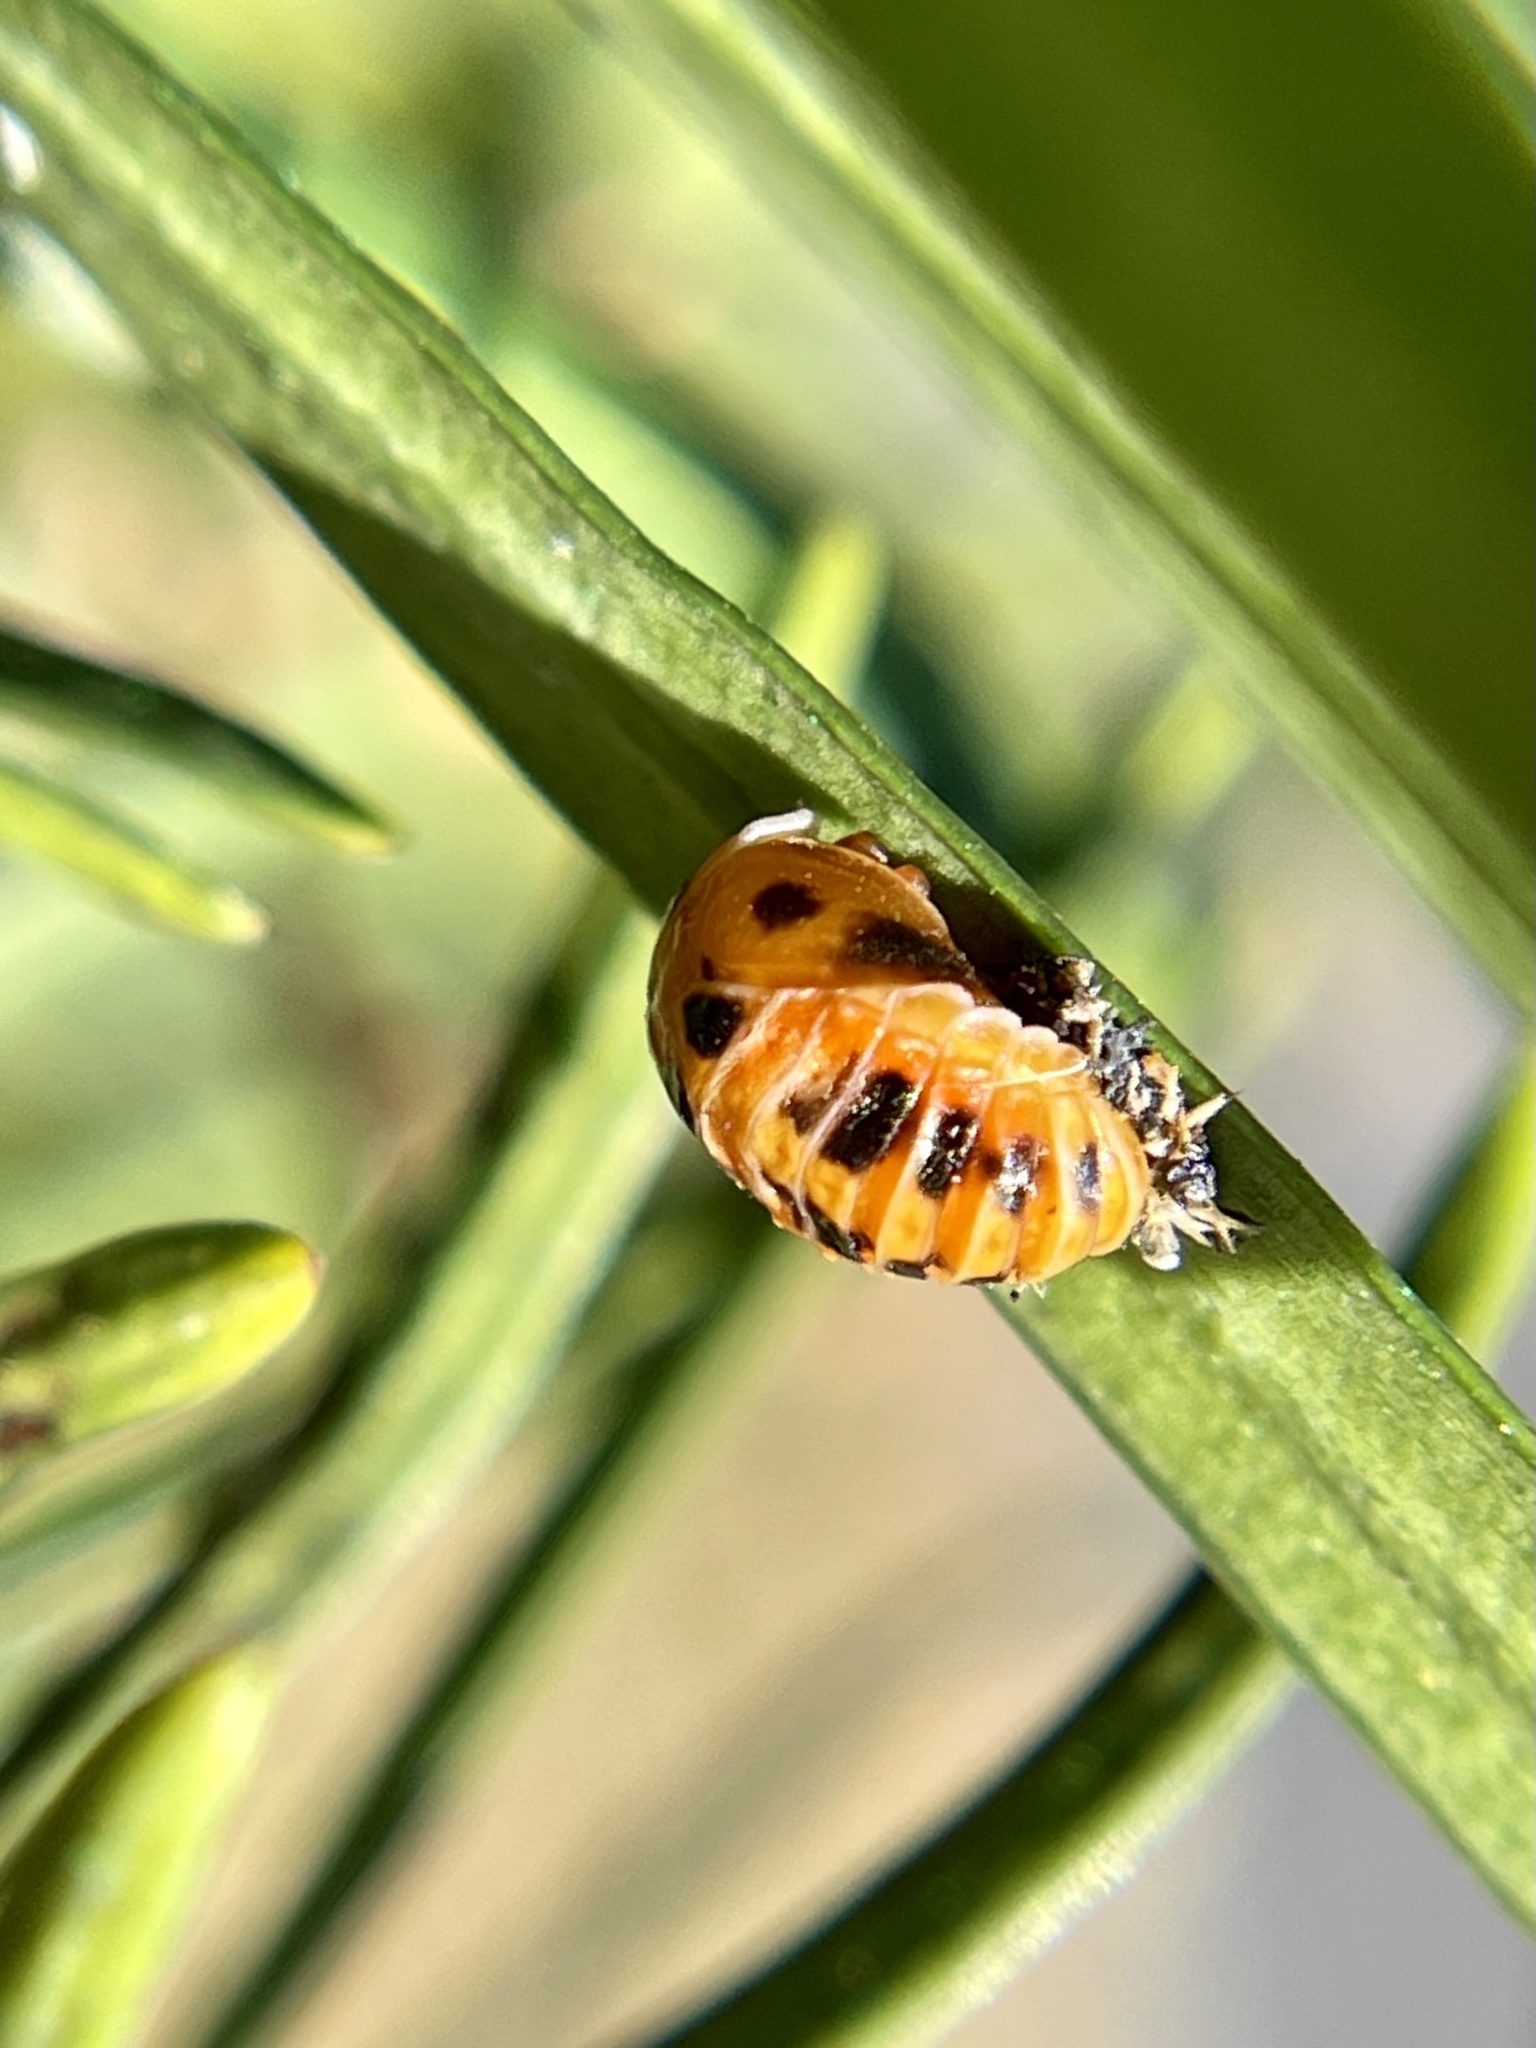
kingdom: Animalia
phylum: Arthropoda
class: Insecta
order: Coleoptera
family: Coccinellidae
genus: Harmonia
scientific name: Harmonia axyridis
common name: Harlequin ladybird
